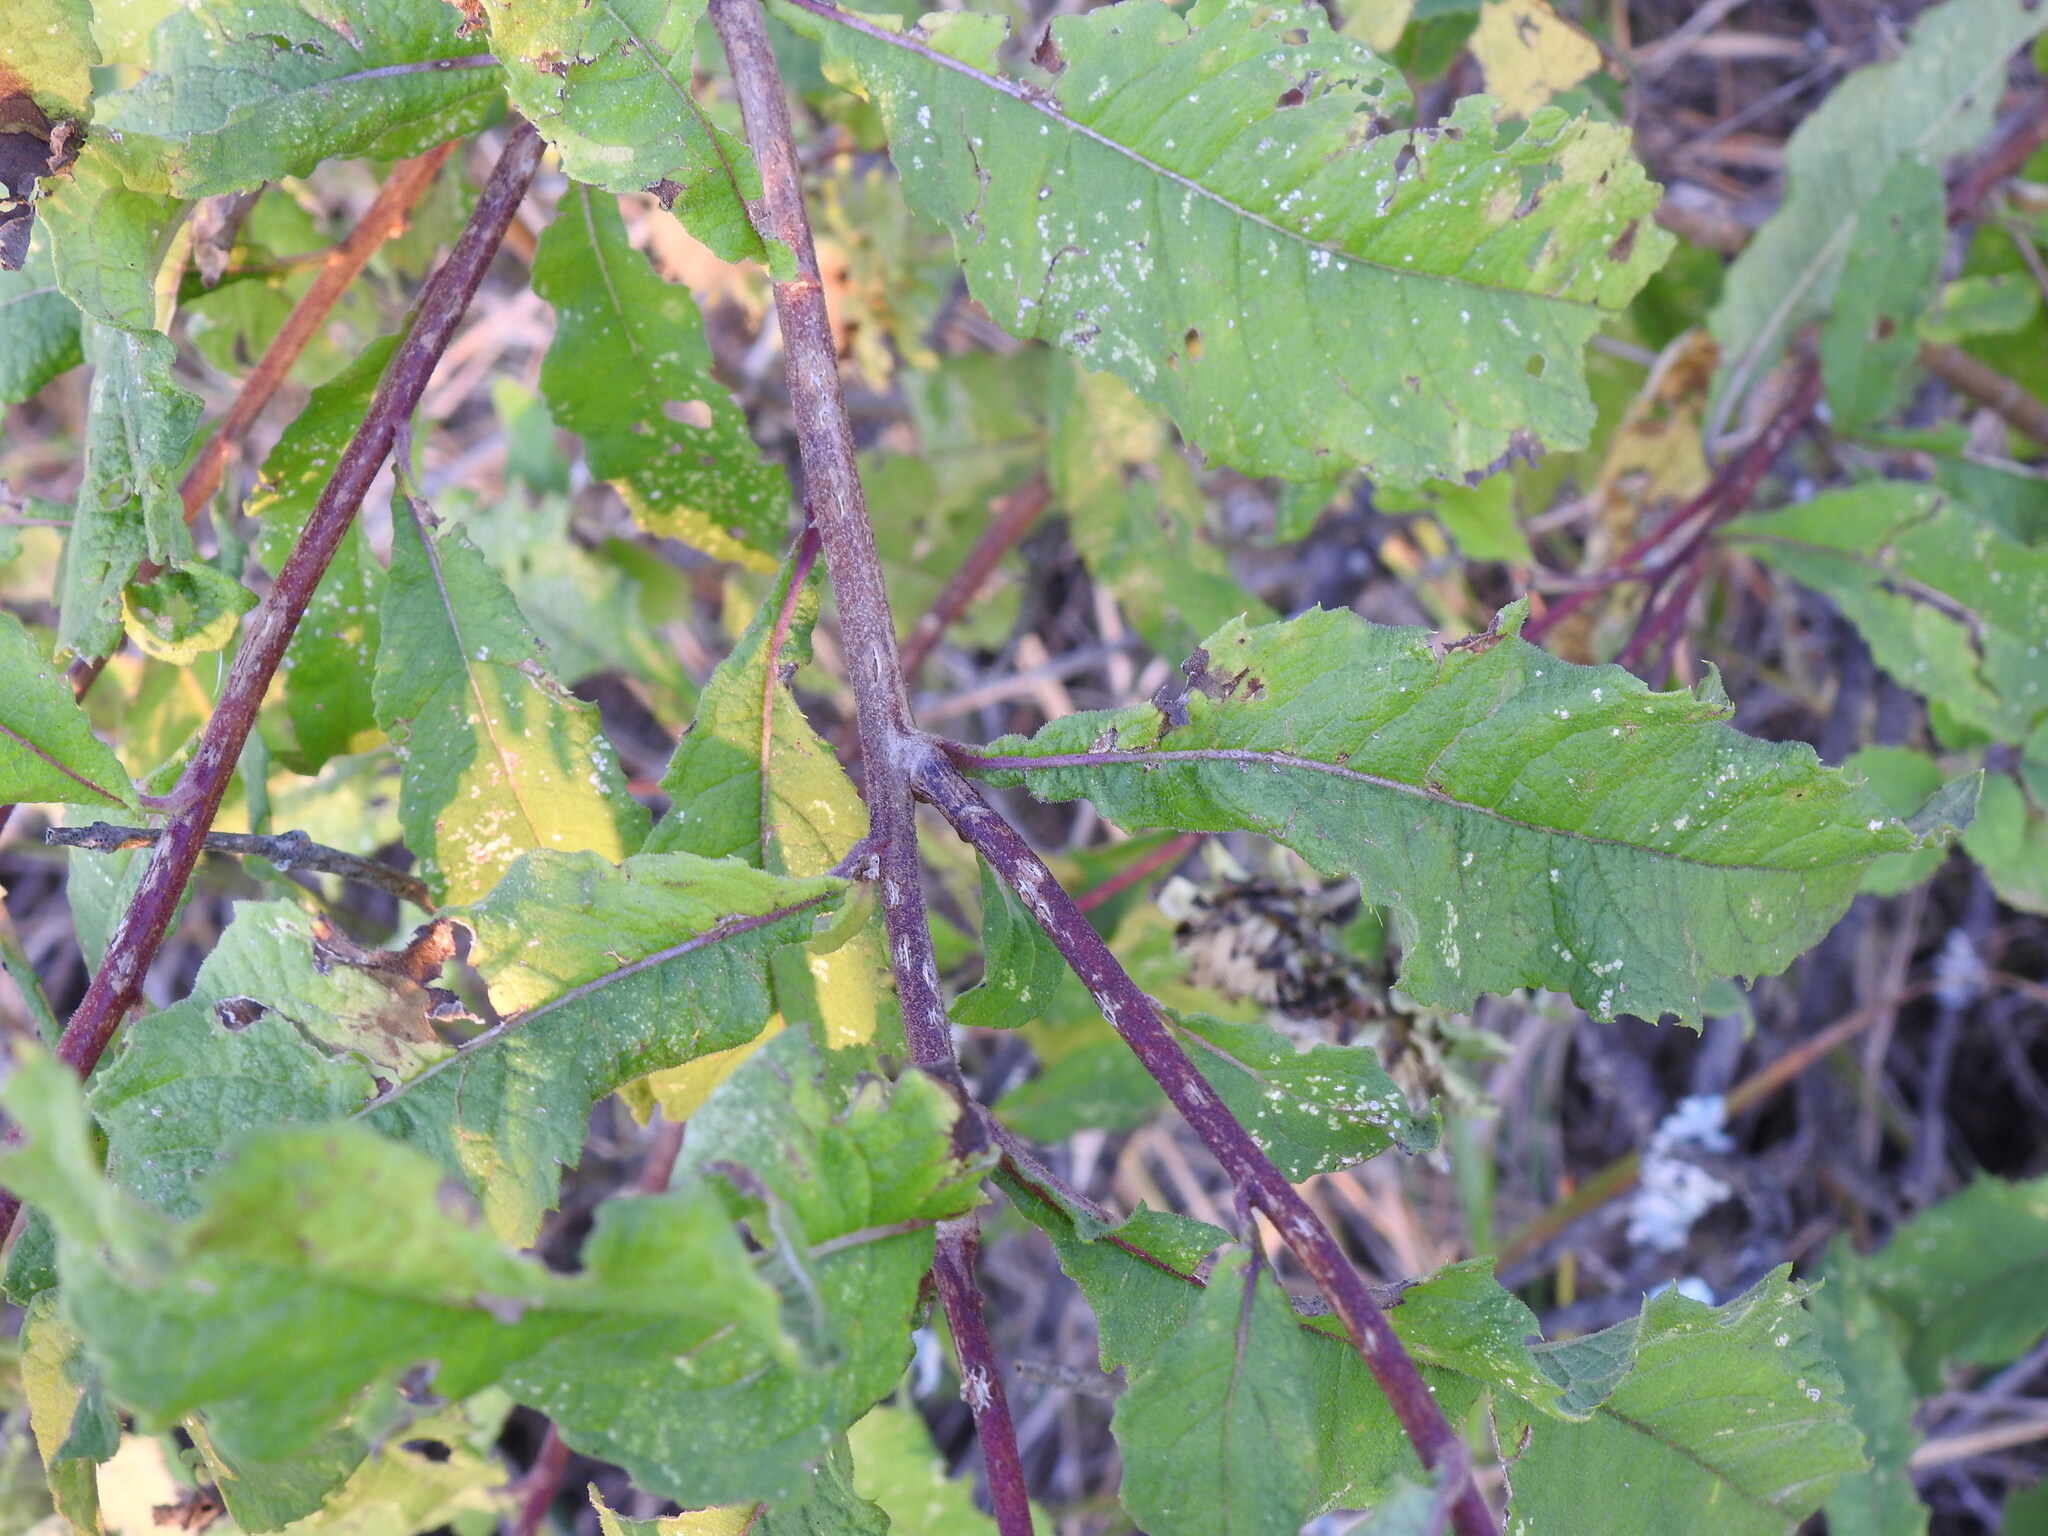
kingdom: Plantae
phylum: Tracheophyta
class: Magnoliopsida
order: Asterales
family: Asteraceae
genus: Baccharoides
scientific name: Baccharoides adoensis
